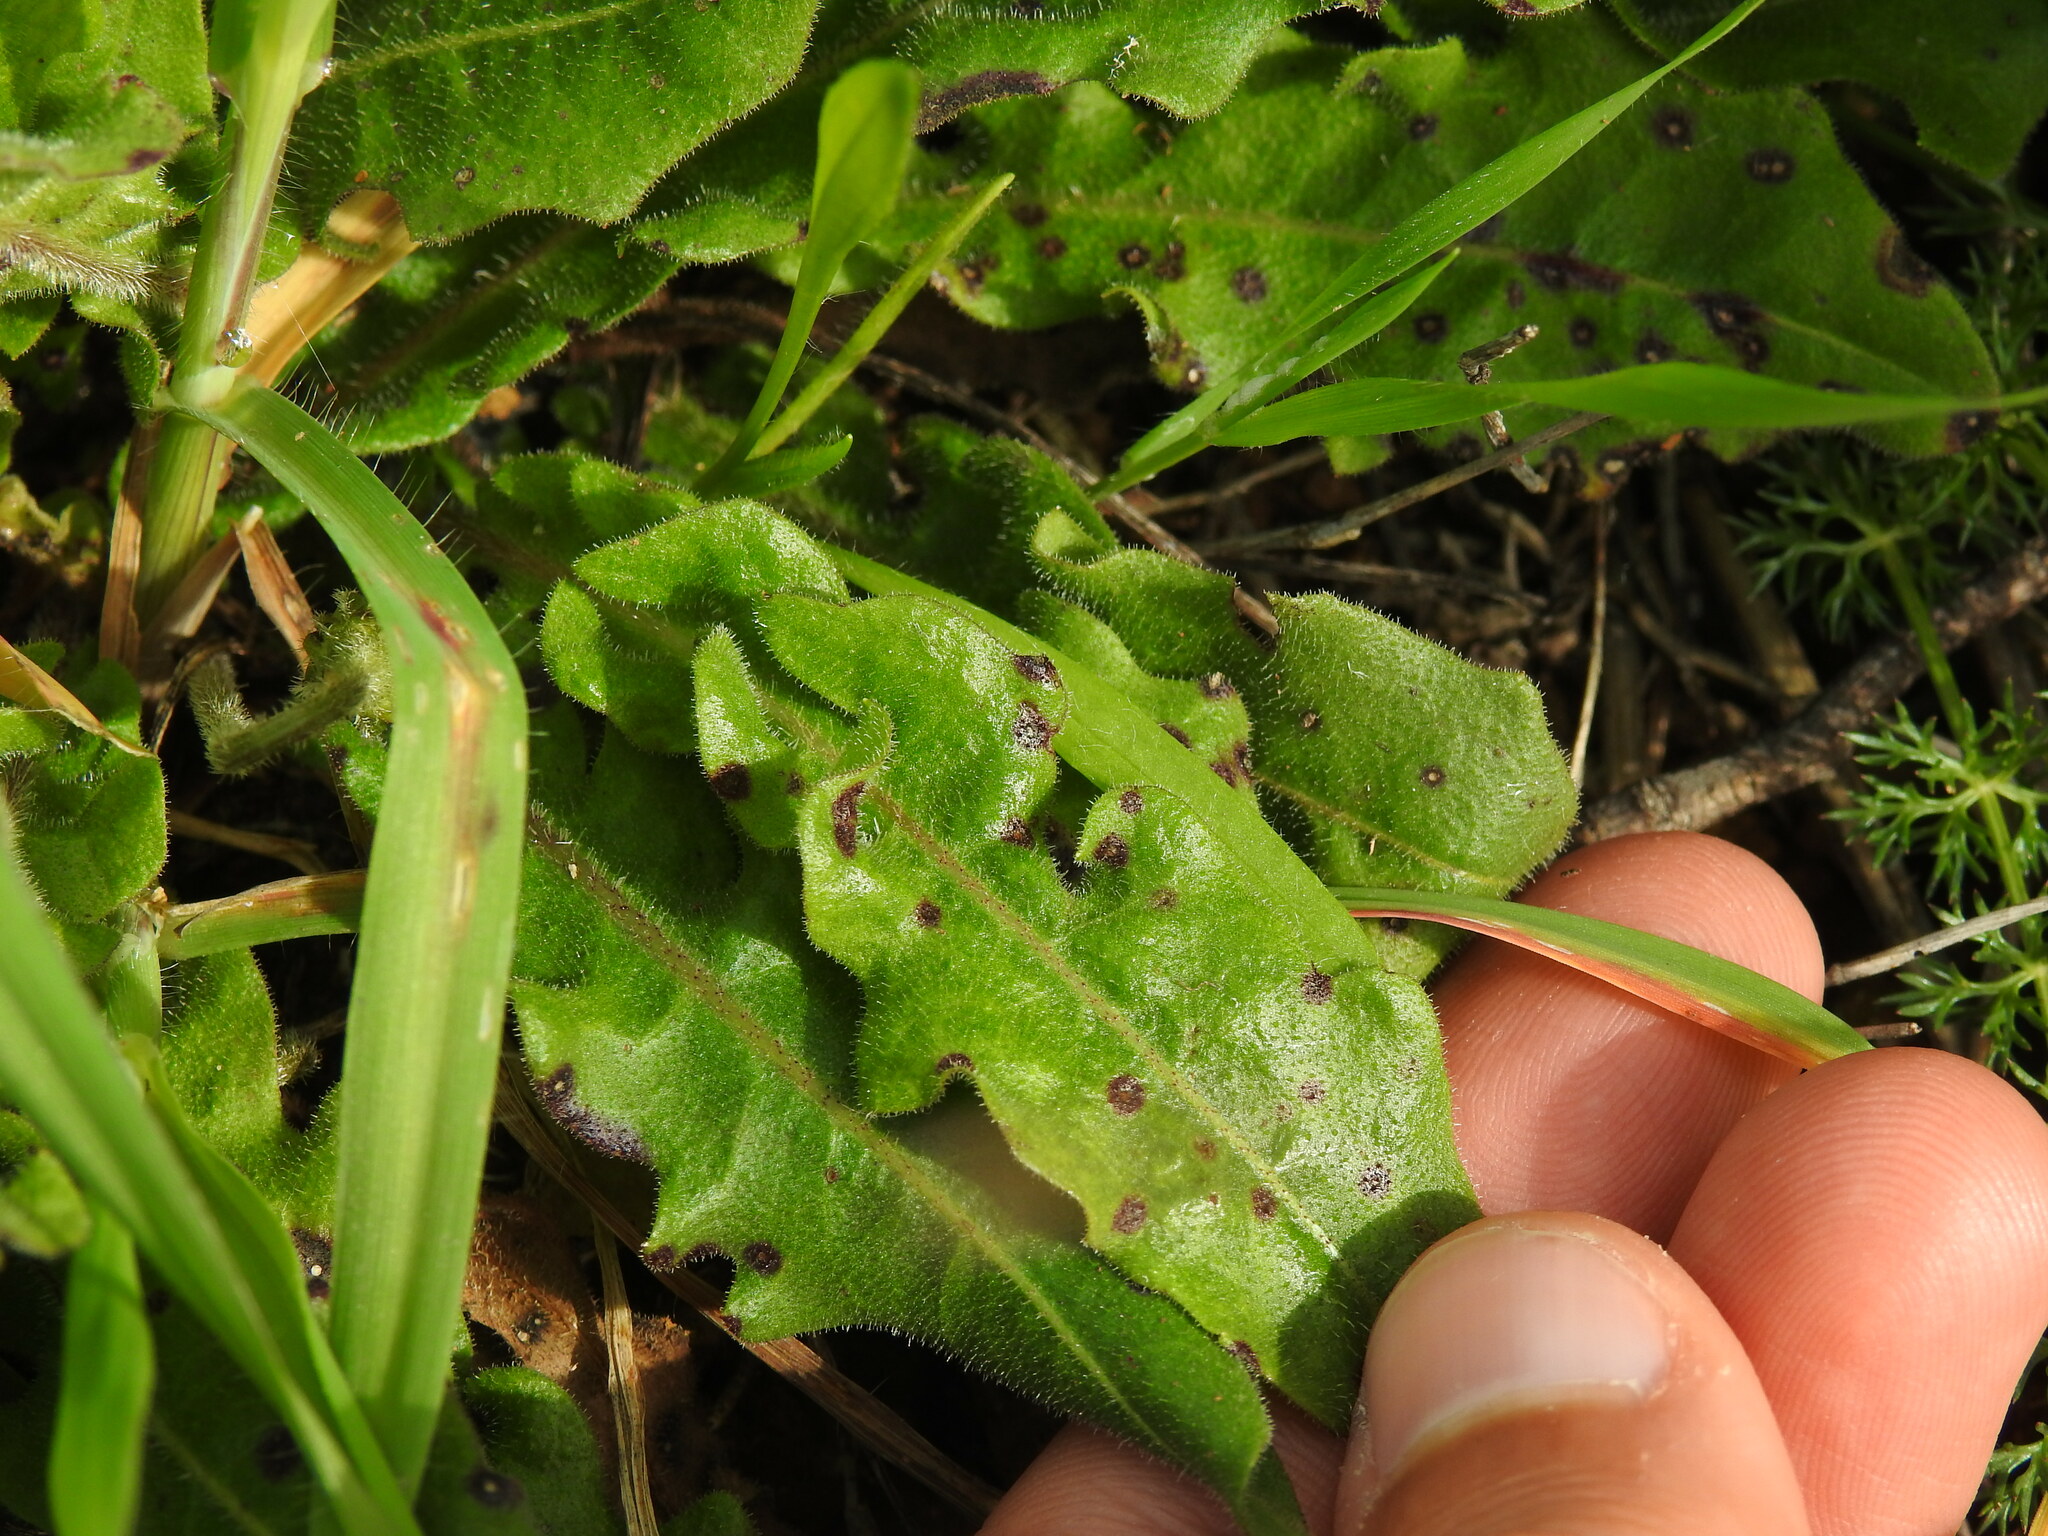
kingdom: Plantae
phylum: Tracheophyta
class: Magnoliopsida
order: Asterales
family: Asteraceae
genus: Leontodon
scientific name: Leontodon tuberosus
